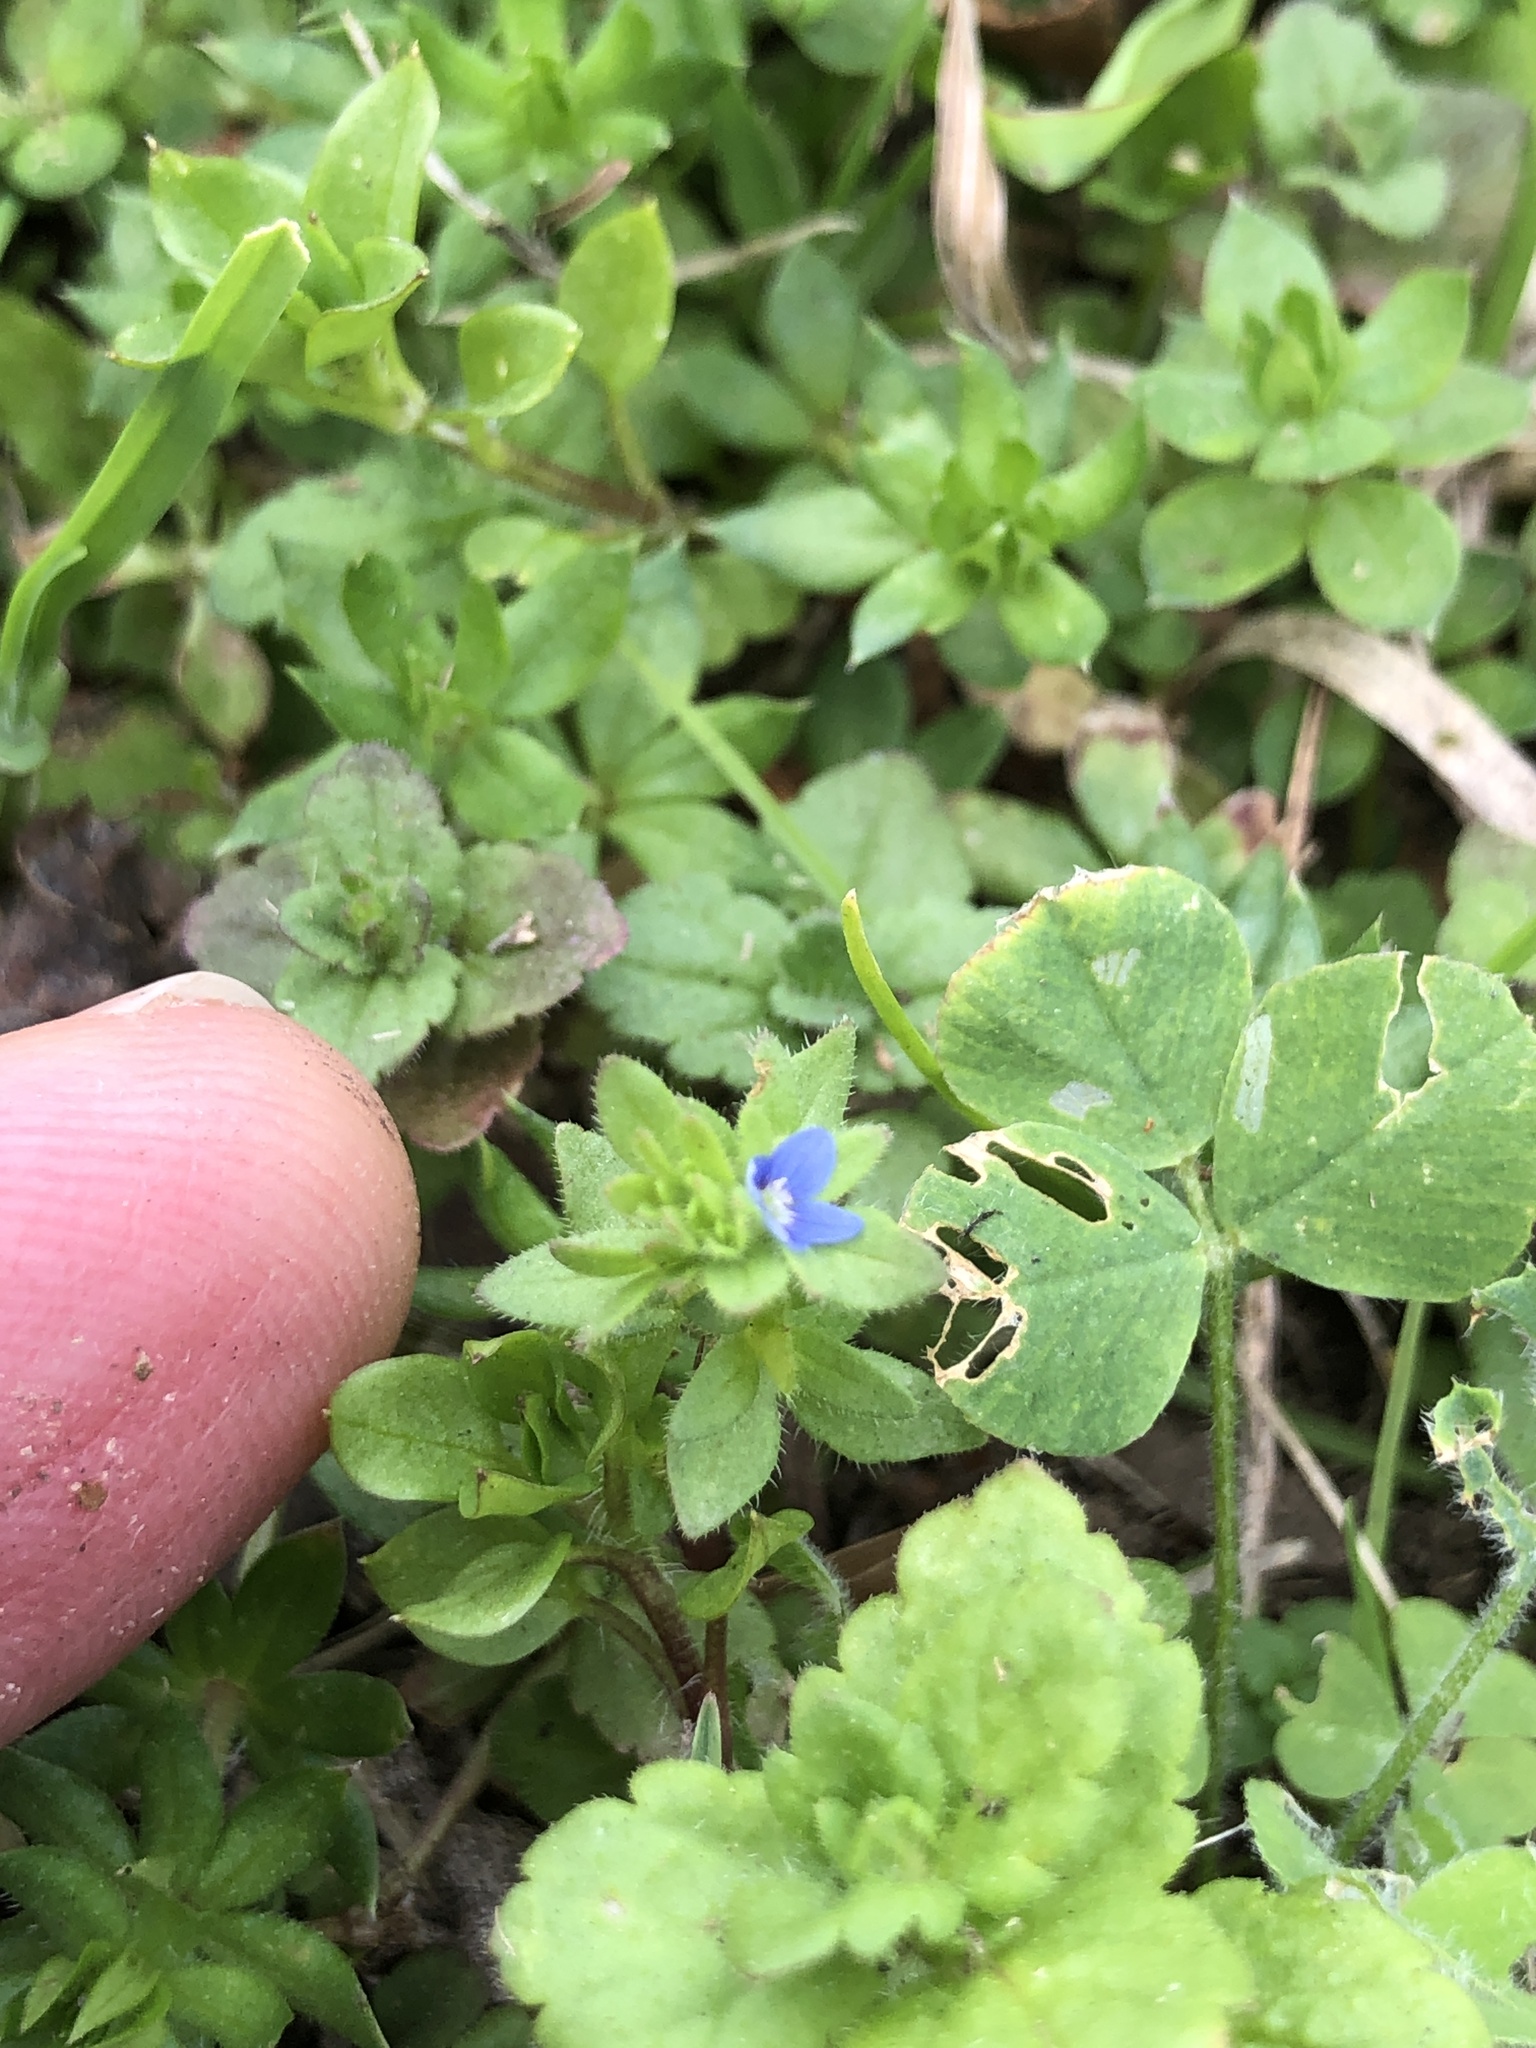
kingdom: Plantae
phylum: Tracheophyta
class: Magnoliopsida
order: Lamiales
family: Plantaginaceae
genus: Veronica
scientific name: Veronica arvensis
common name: Corn speedwell
